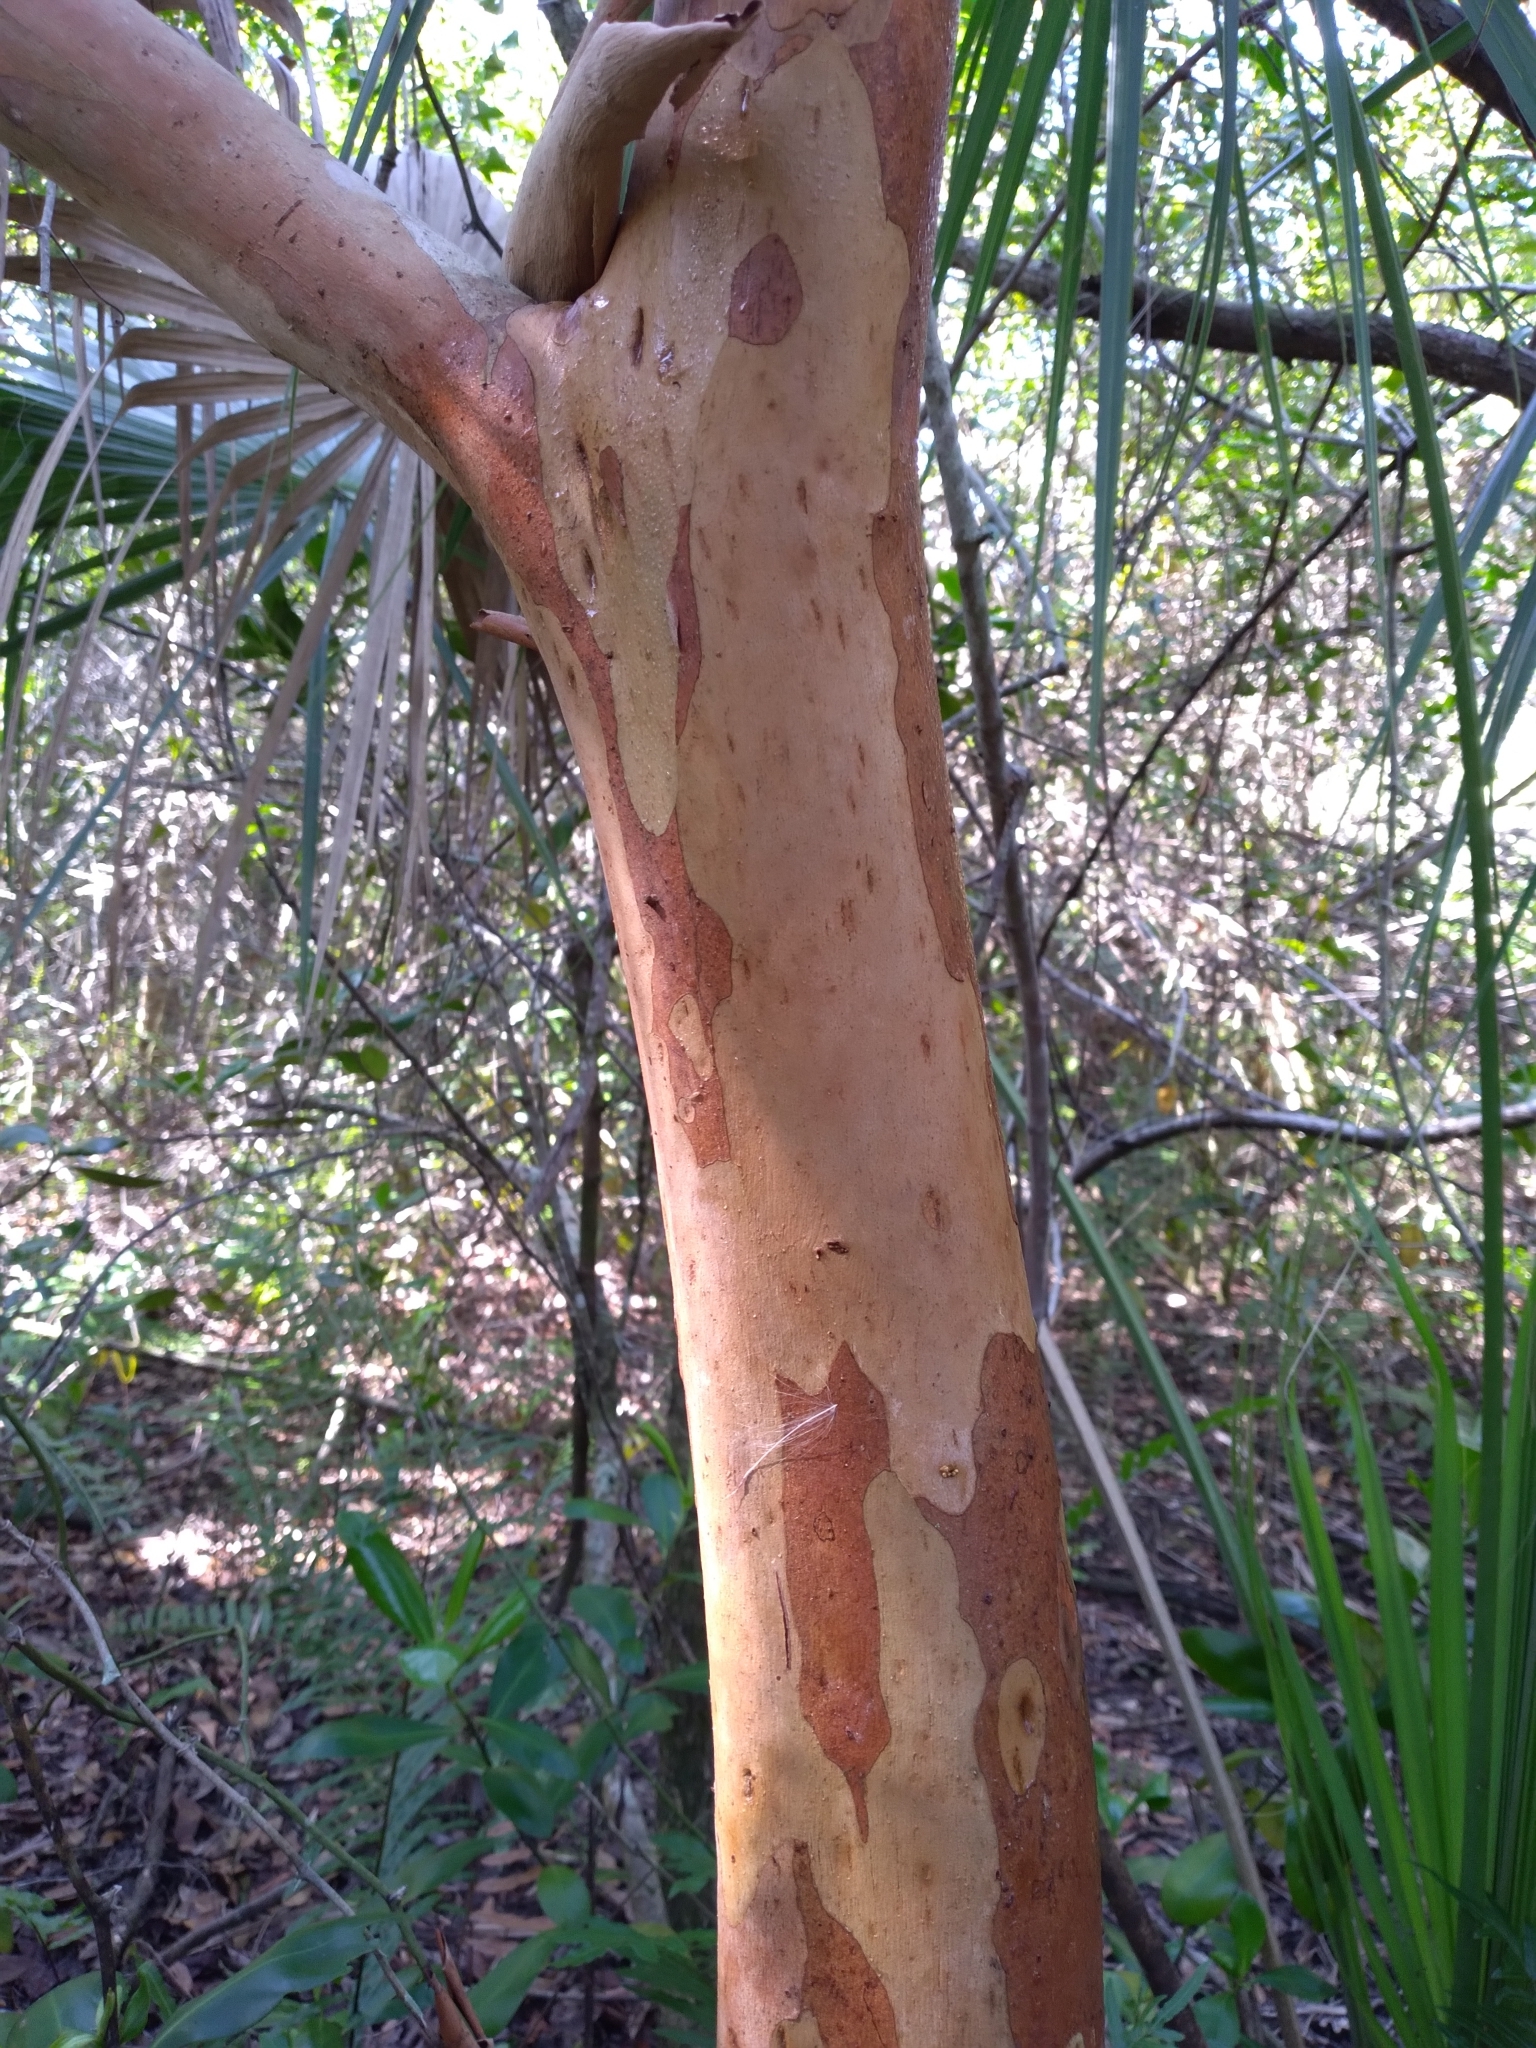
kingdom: Plantae
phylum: Tracheophyta
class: Magnoliopsida
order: Myrtales
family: Myrtaceae
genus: Psidium
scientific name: Psidium cattleianum
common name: Strawberry guava
